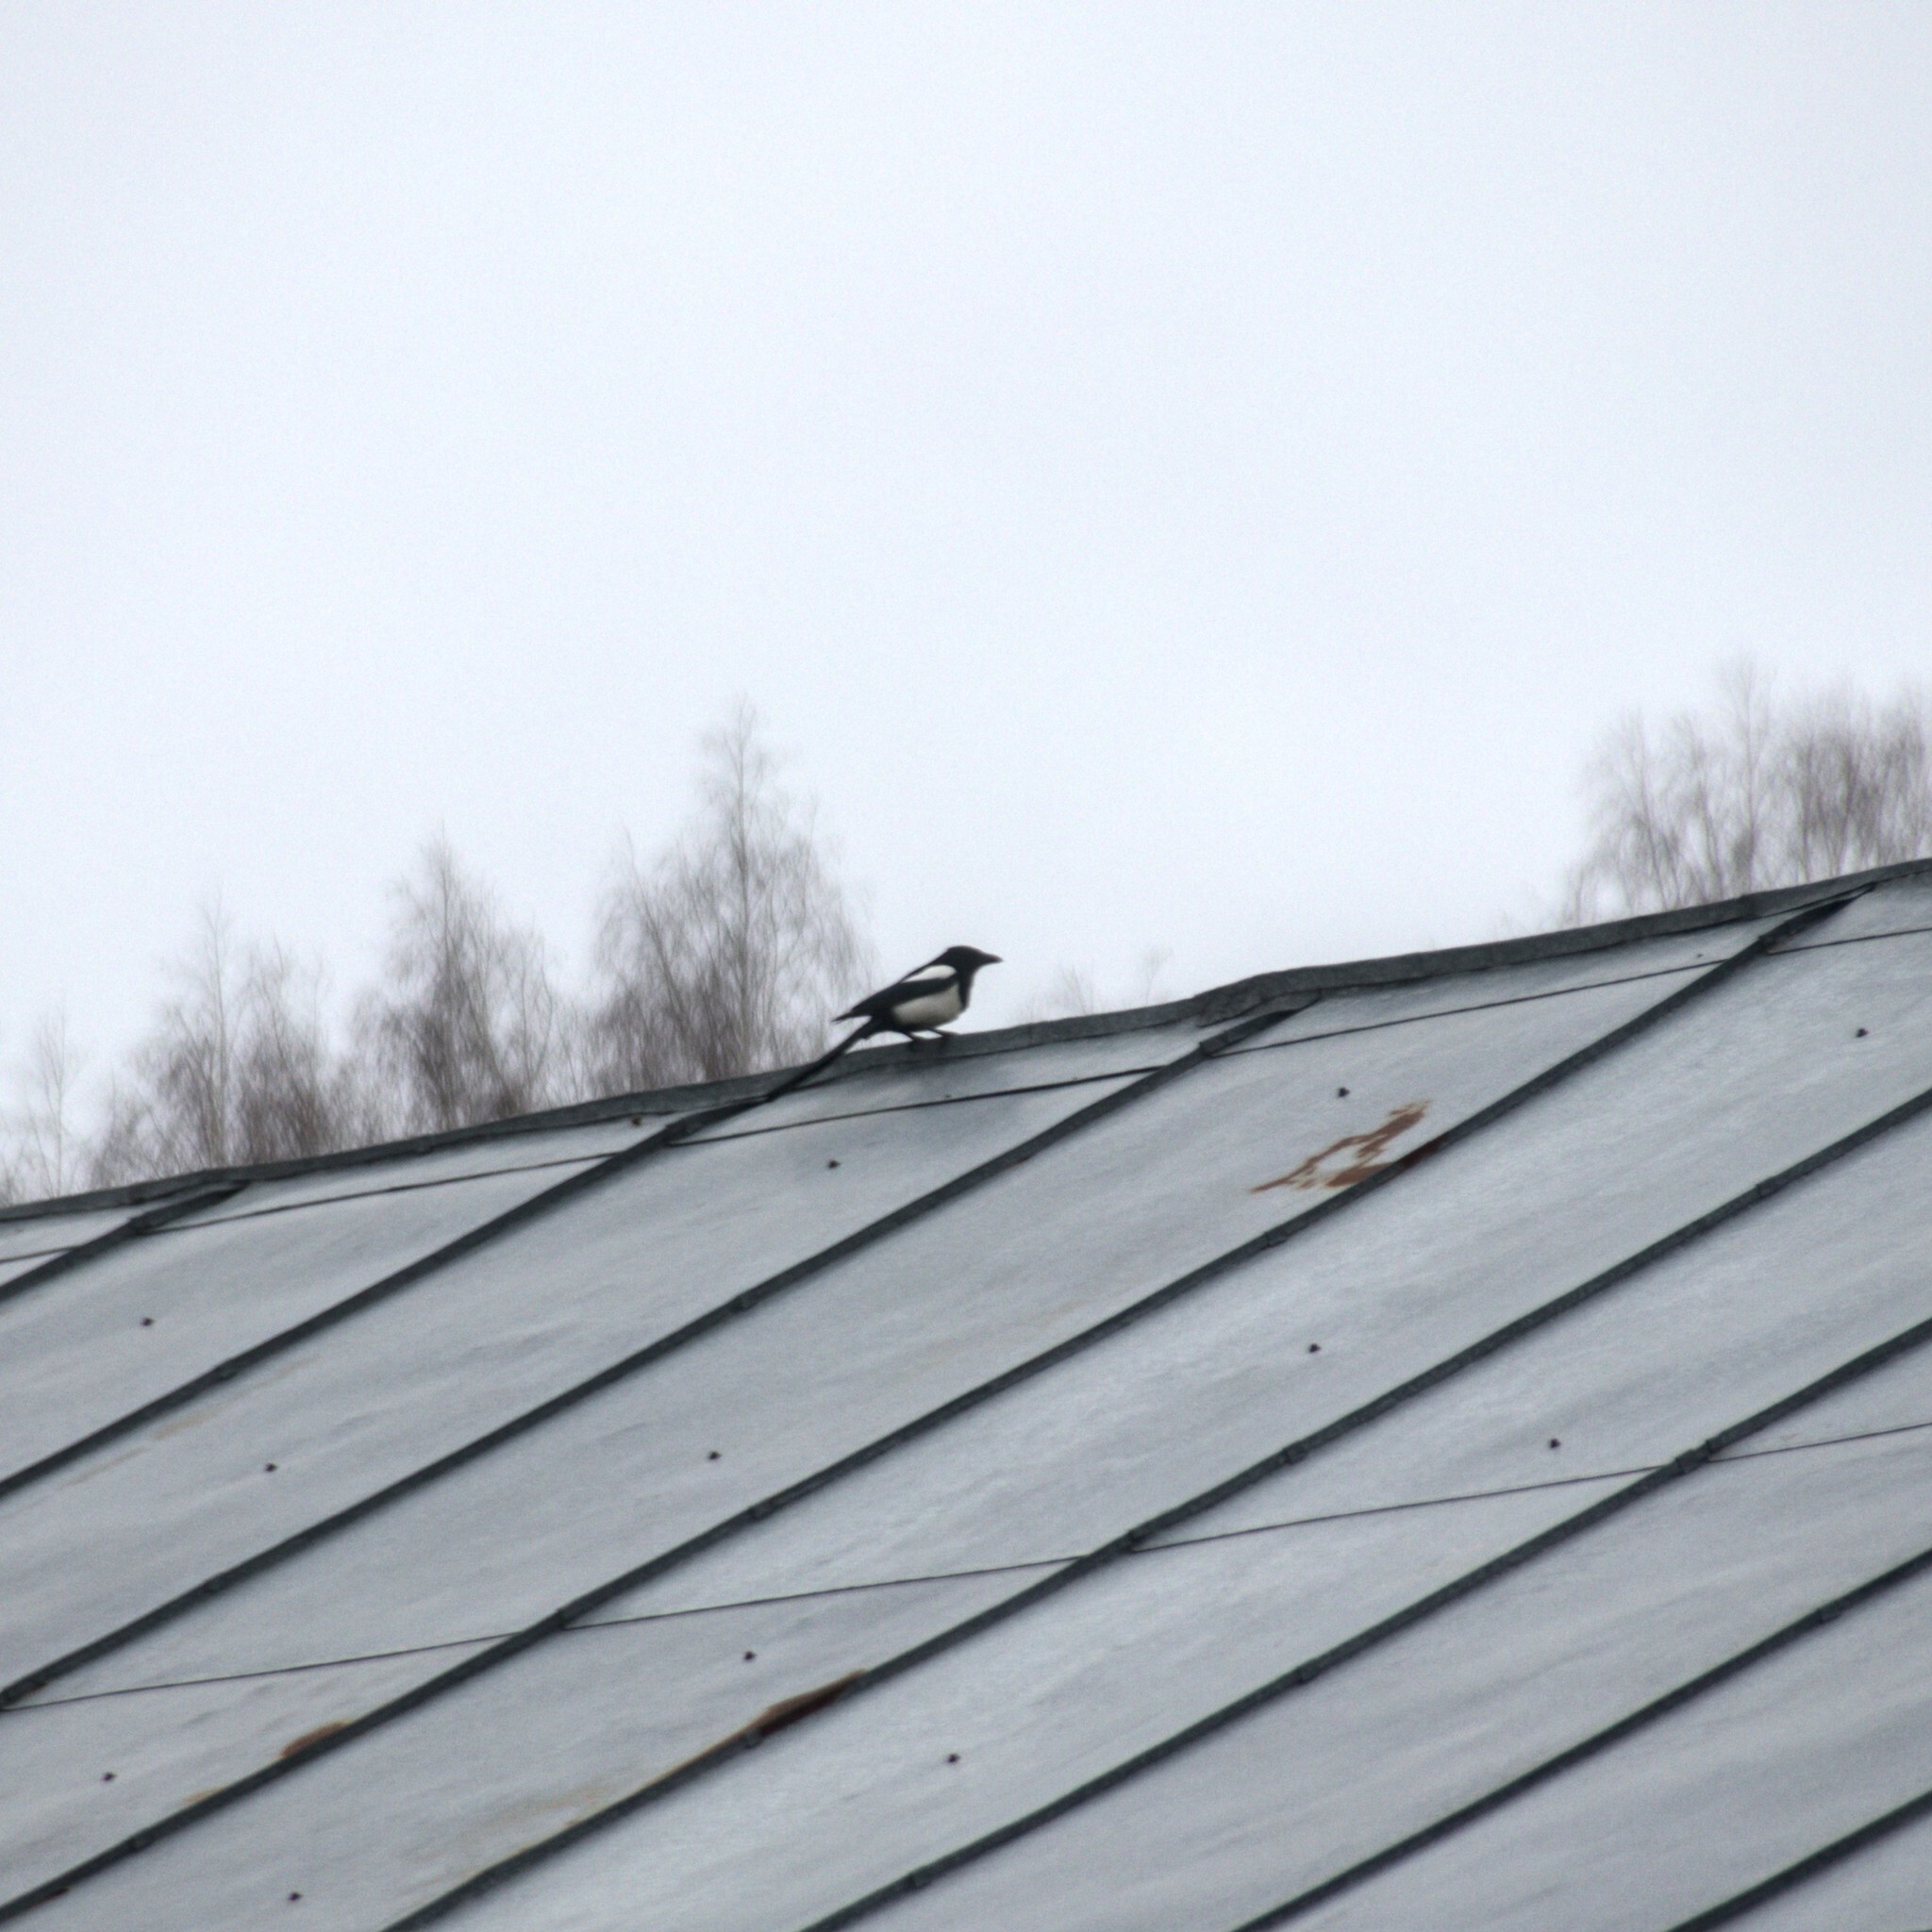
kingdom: Animalia
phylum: Chordata
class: Aves
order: Passeriformes
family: Corvidae
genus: Pica
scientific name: Pica pica
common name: Eurasian magpie
